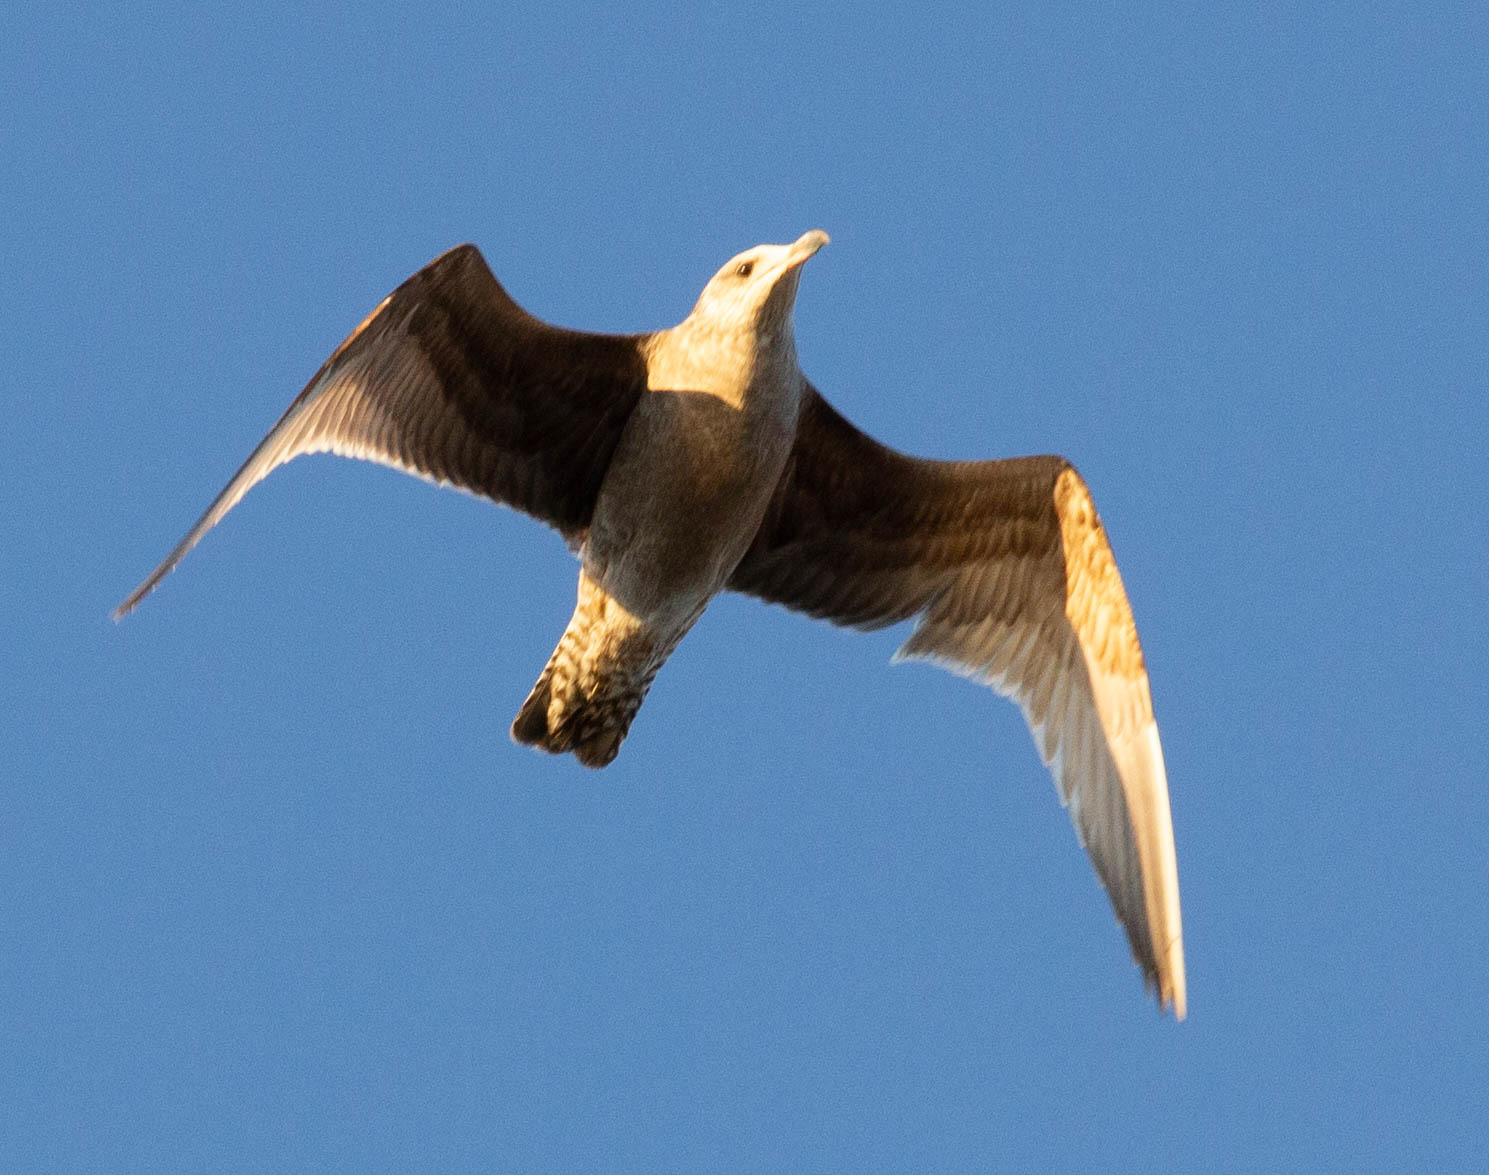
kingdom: Animalia
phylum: Chordata
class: Aves
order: Charadriiformes
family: Laridae
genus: Larus
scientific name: Larus smithsonianus
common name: American herring gull
